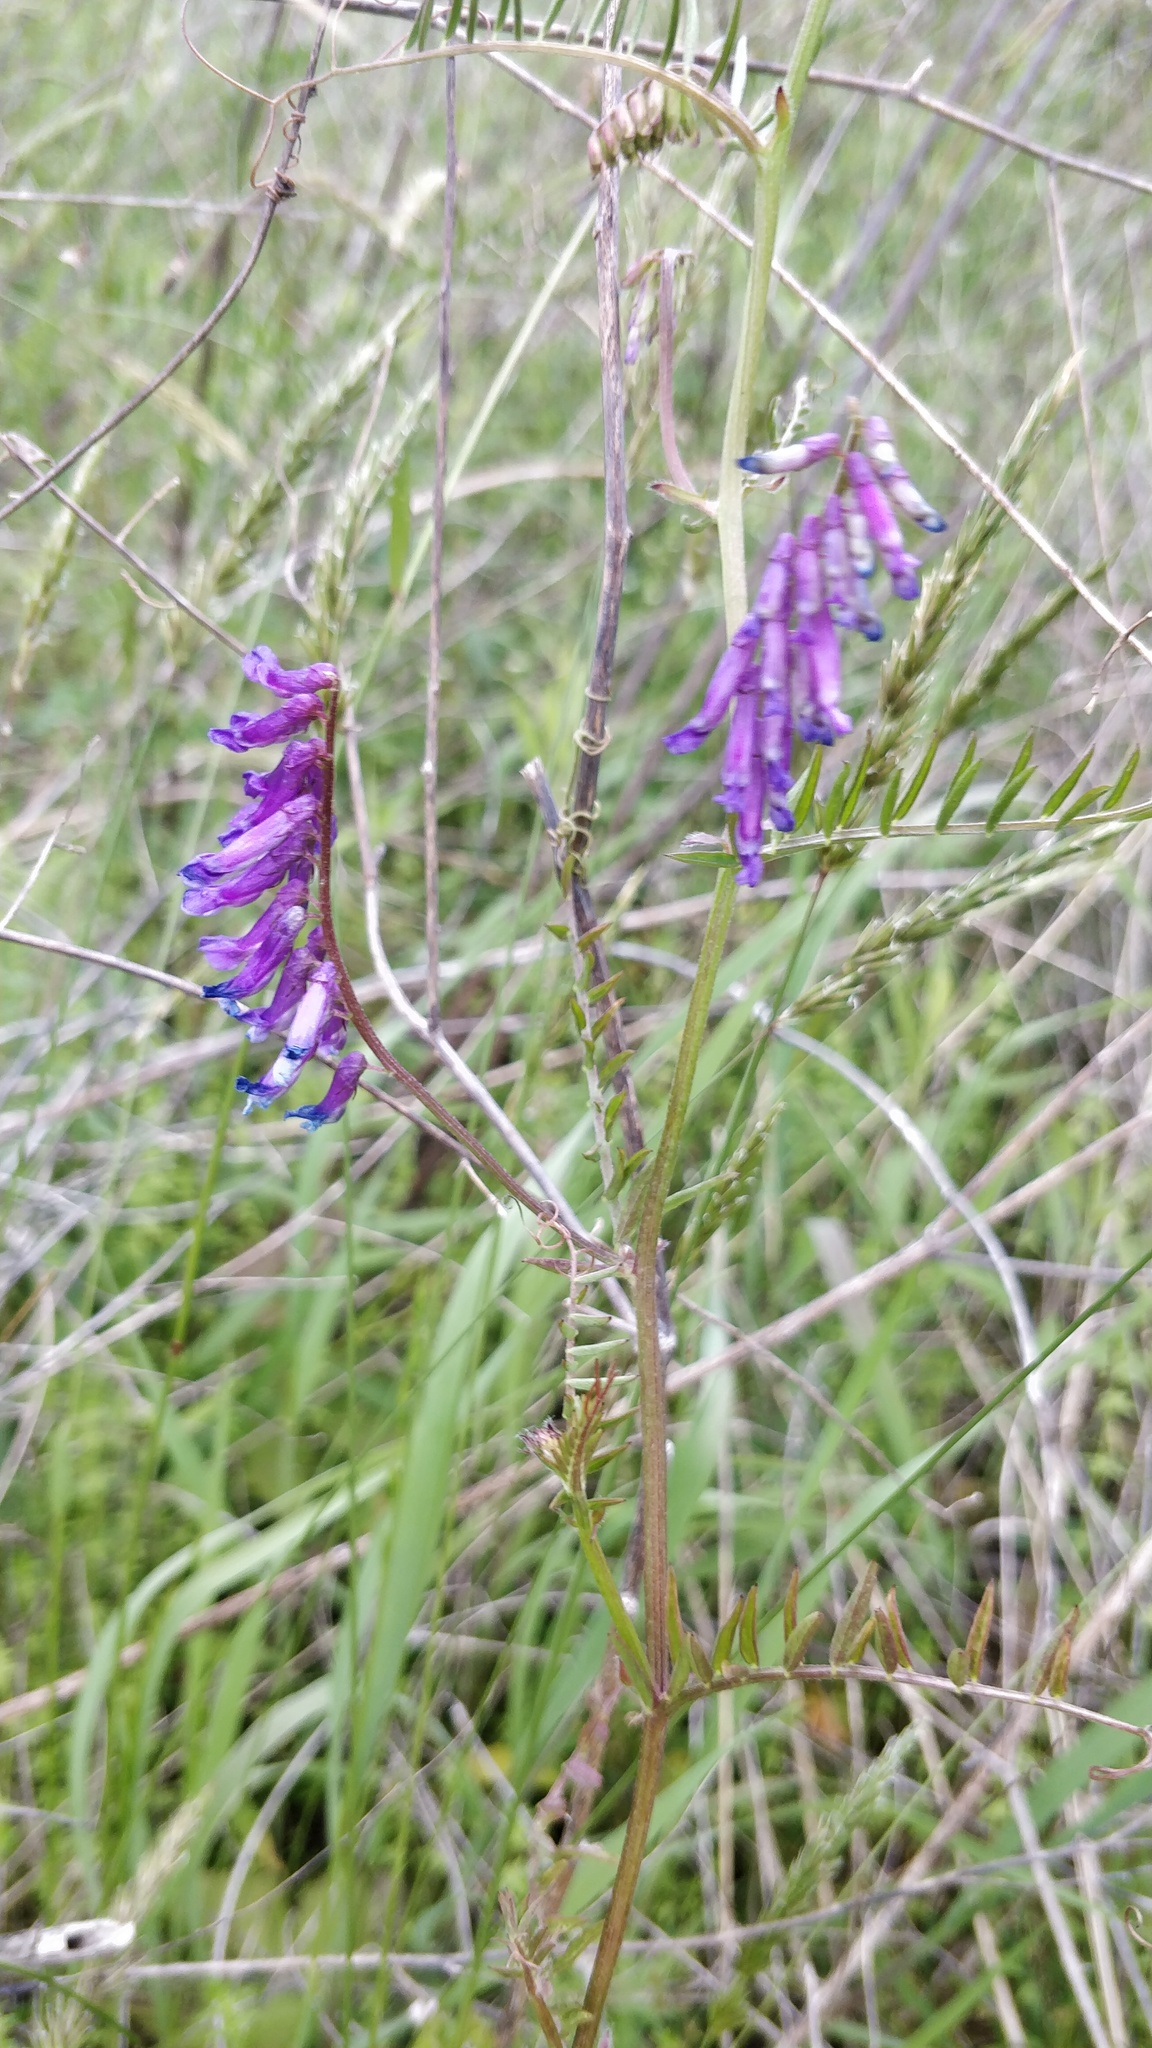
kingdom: Plantae
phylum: Tracheophyta
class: Magnoliopsida
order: Fabales
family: Fabaceae
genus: Vicia
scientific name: Vicia villosa
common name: Fodder vetch
